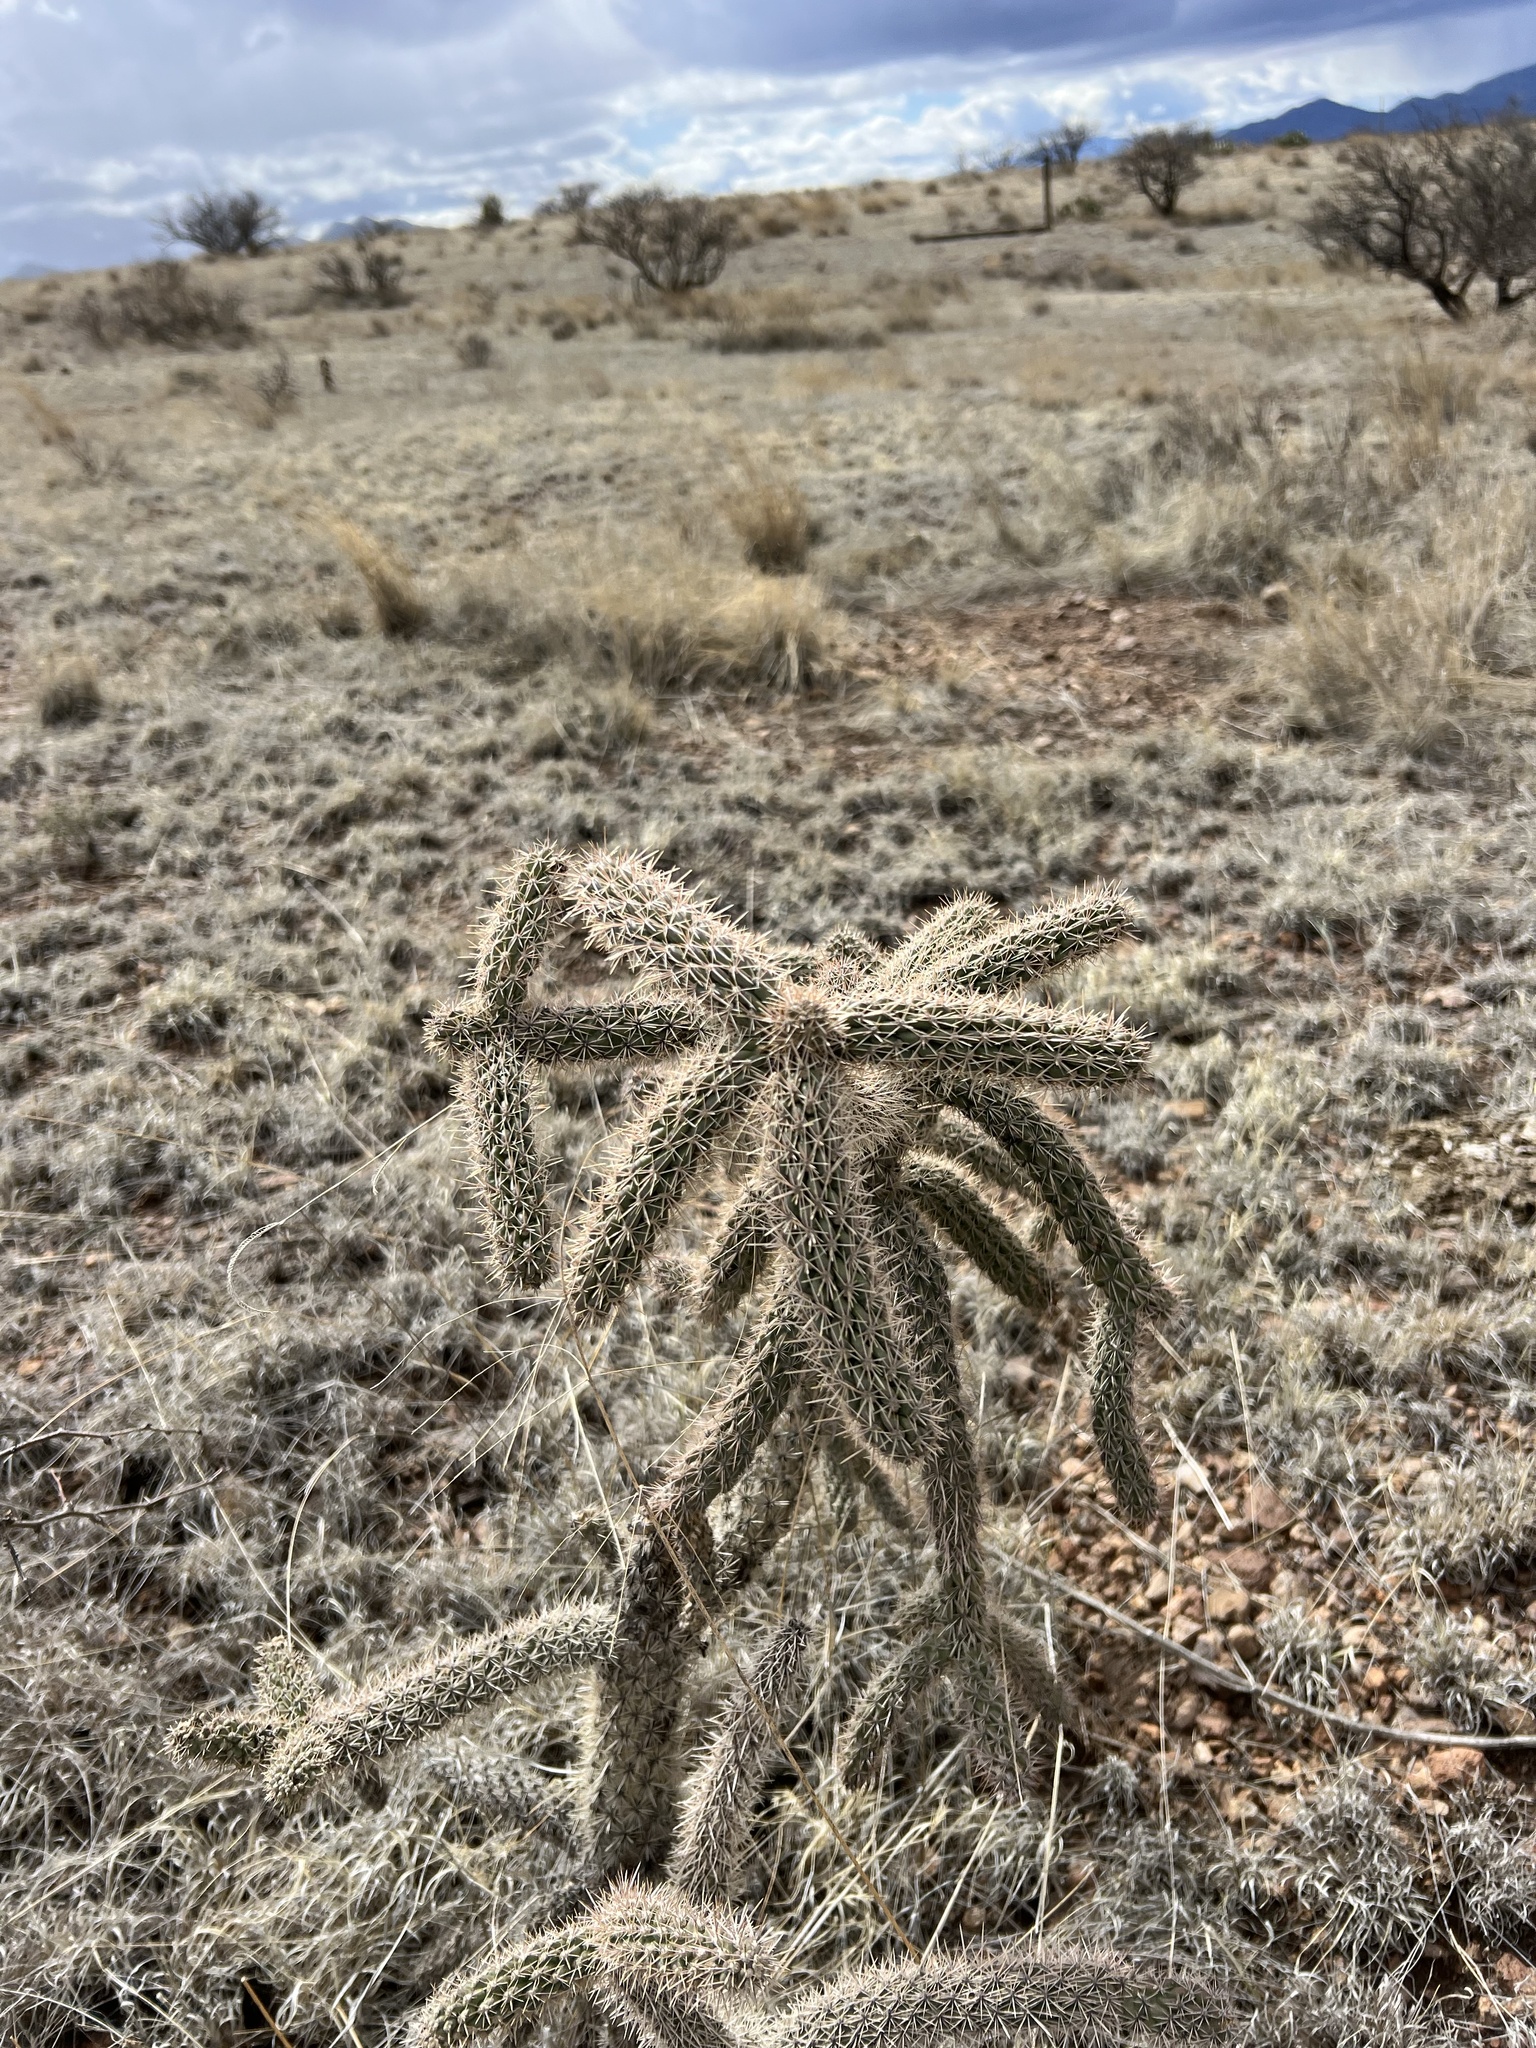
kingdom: Plantae
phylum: Tracheophyta
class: Magnoliopsida
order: Caryophyllales
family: Cactaceae
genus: Cylindropuntia
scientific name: Cylindropuntia imbricata
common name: Candelabrum cactus
